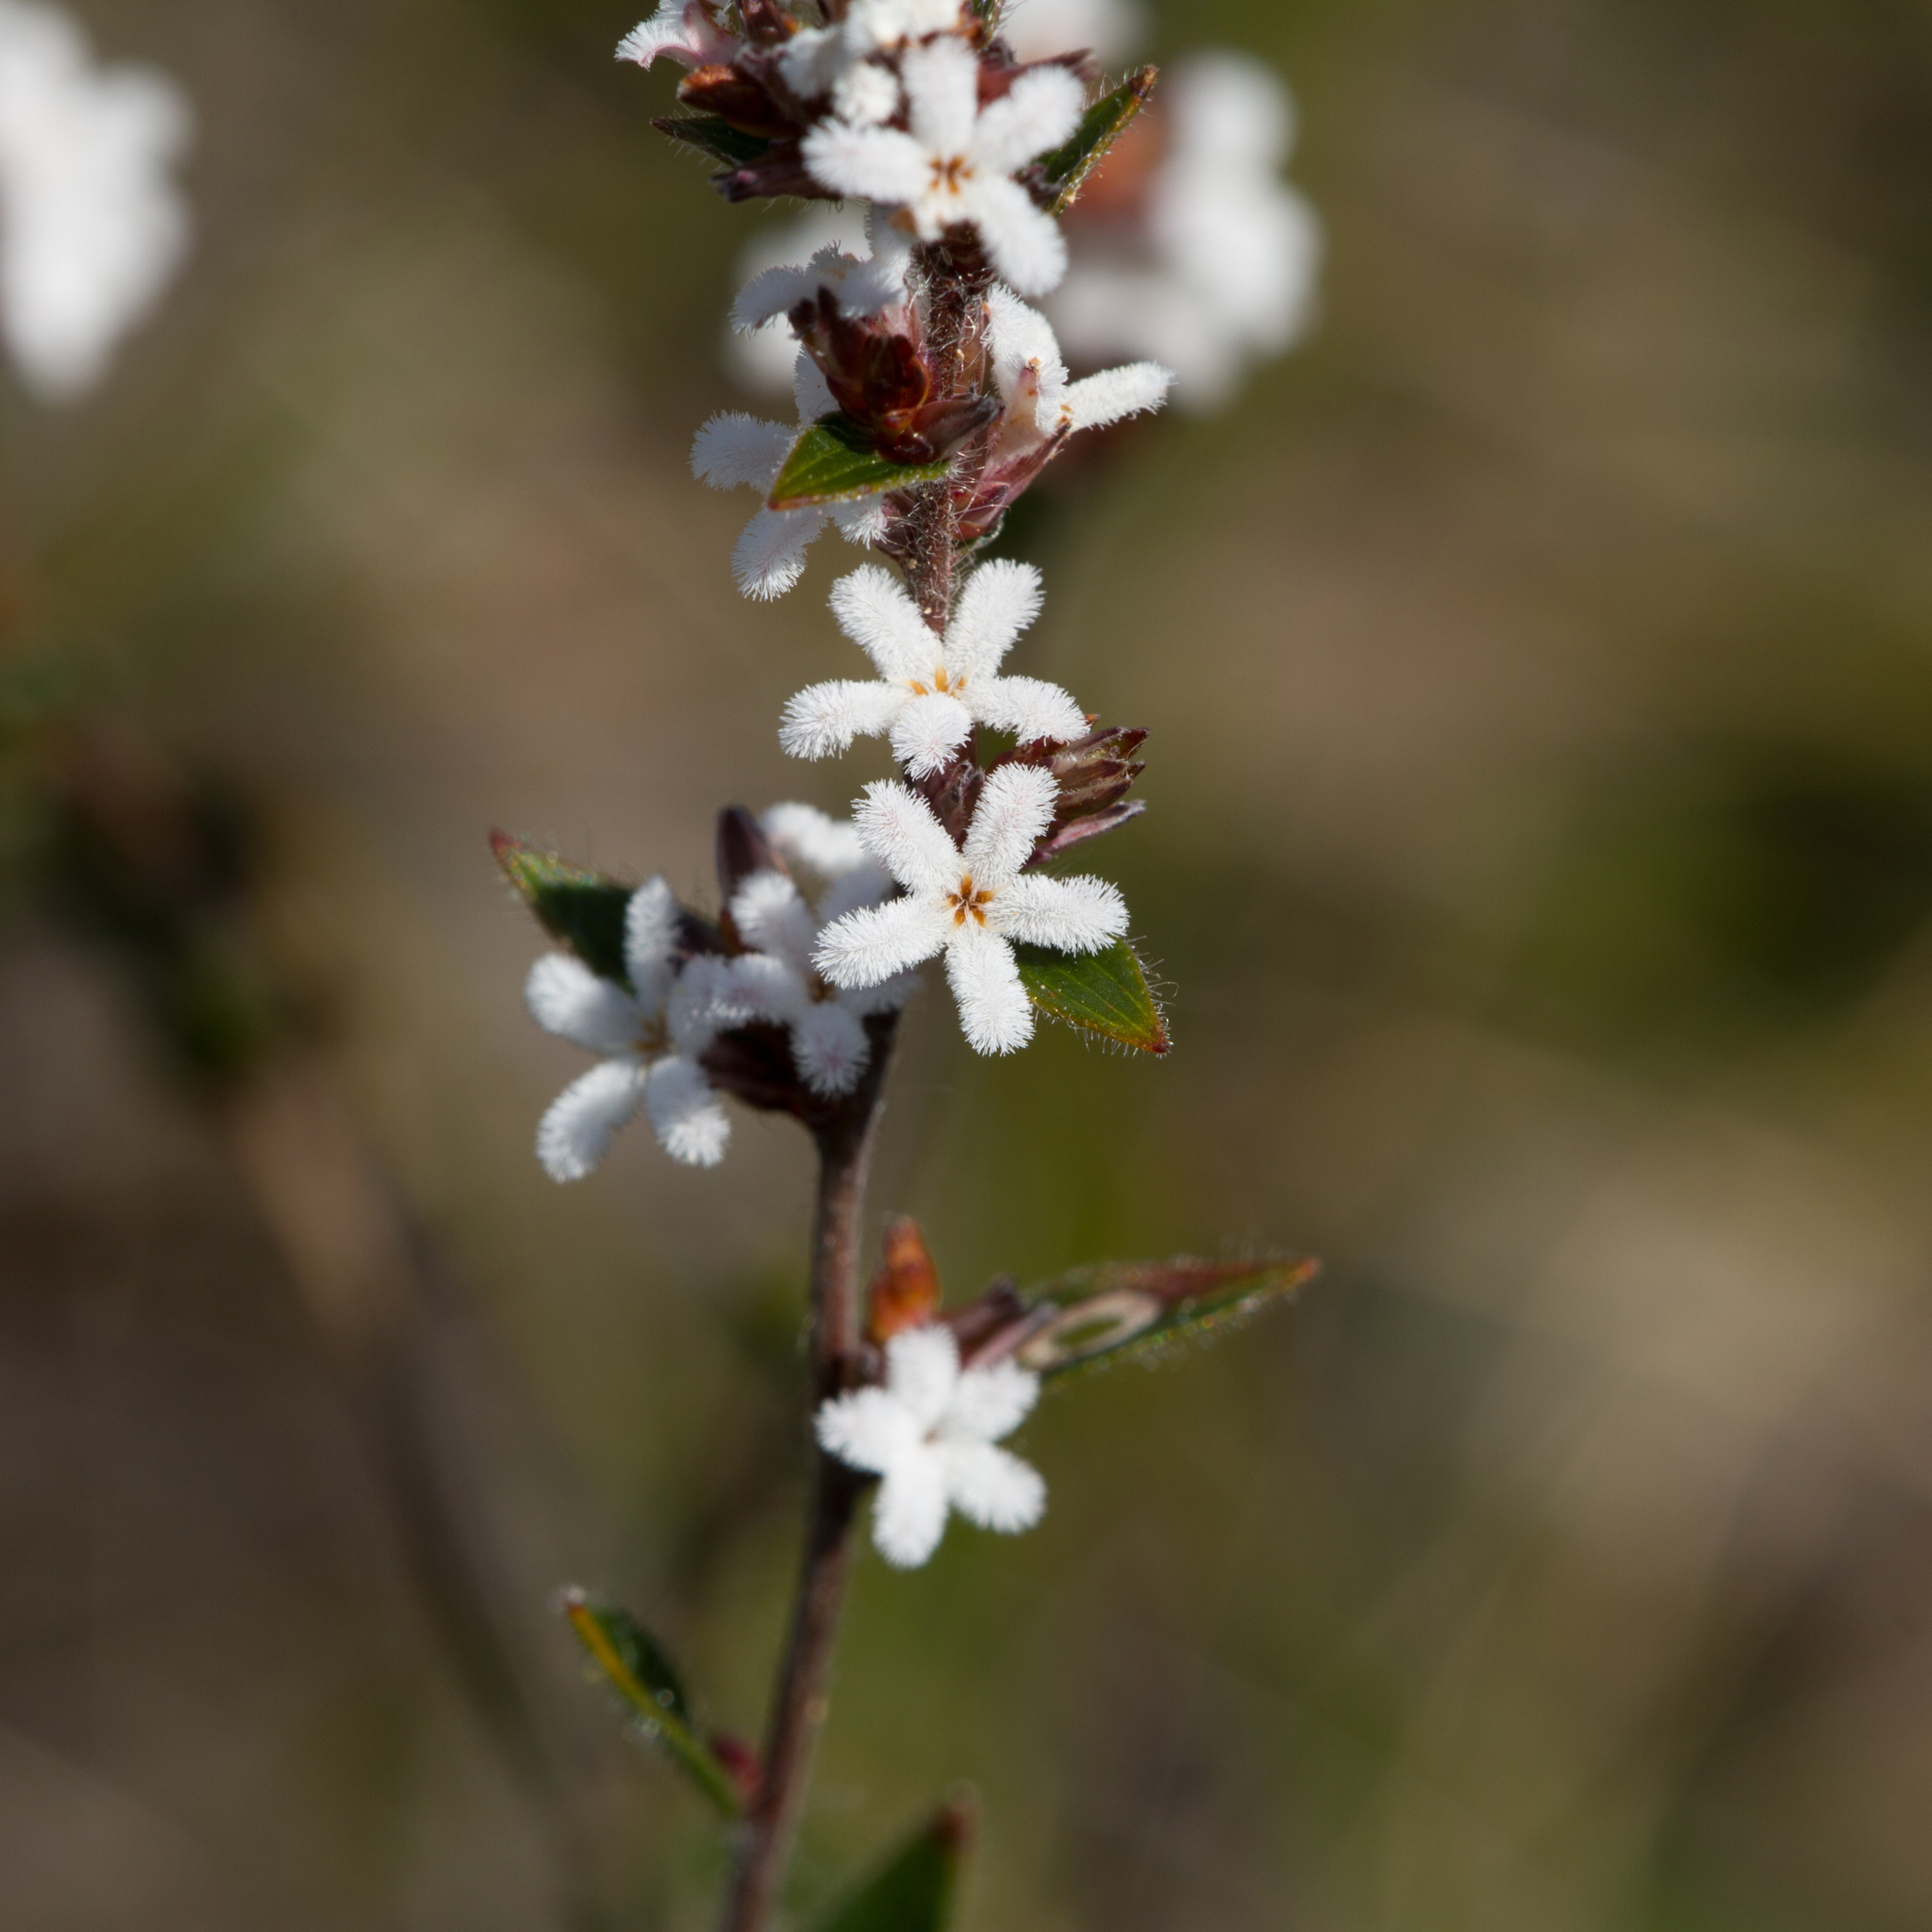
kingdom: Plantae
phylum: Tracheophyta
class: Magnoliopsida
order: Ericales
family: Ericaceae
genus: Leucopogon
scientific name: Leucopogon concurvus
